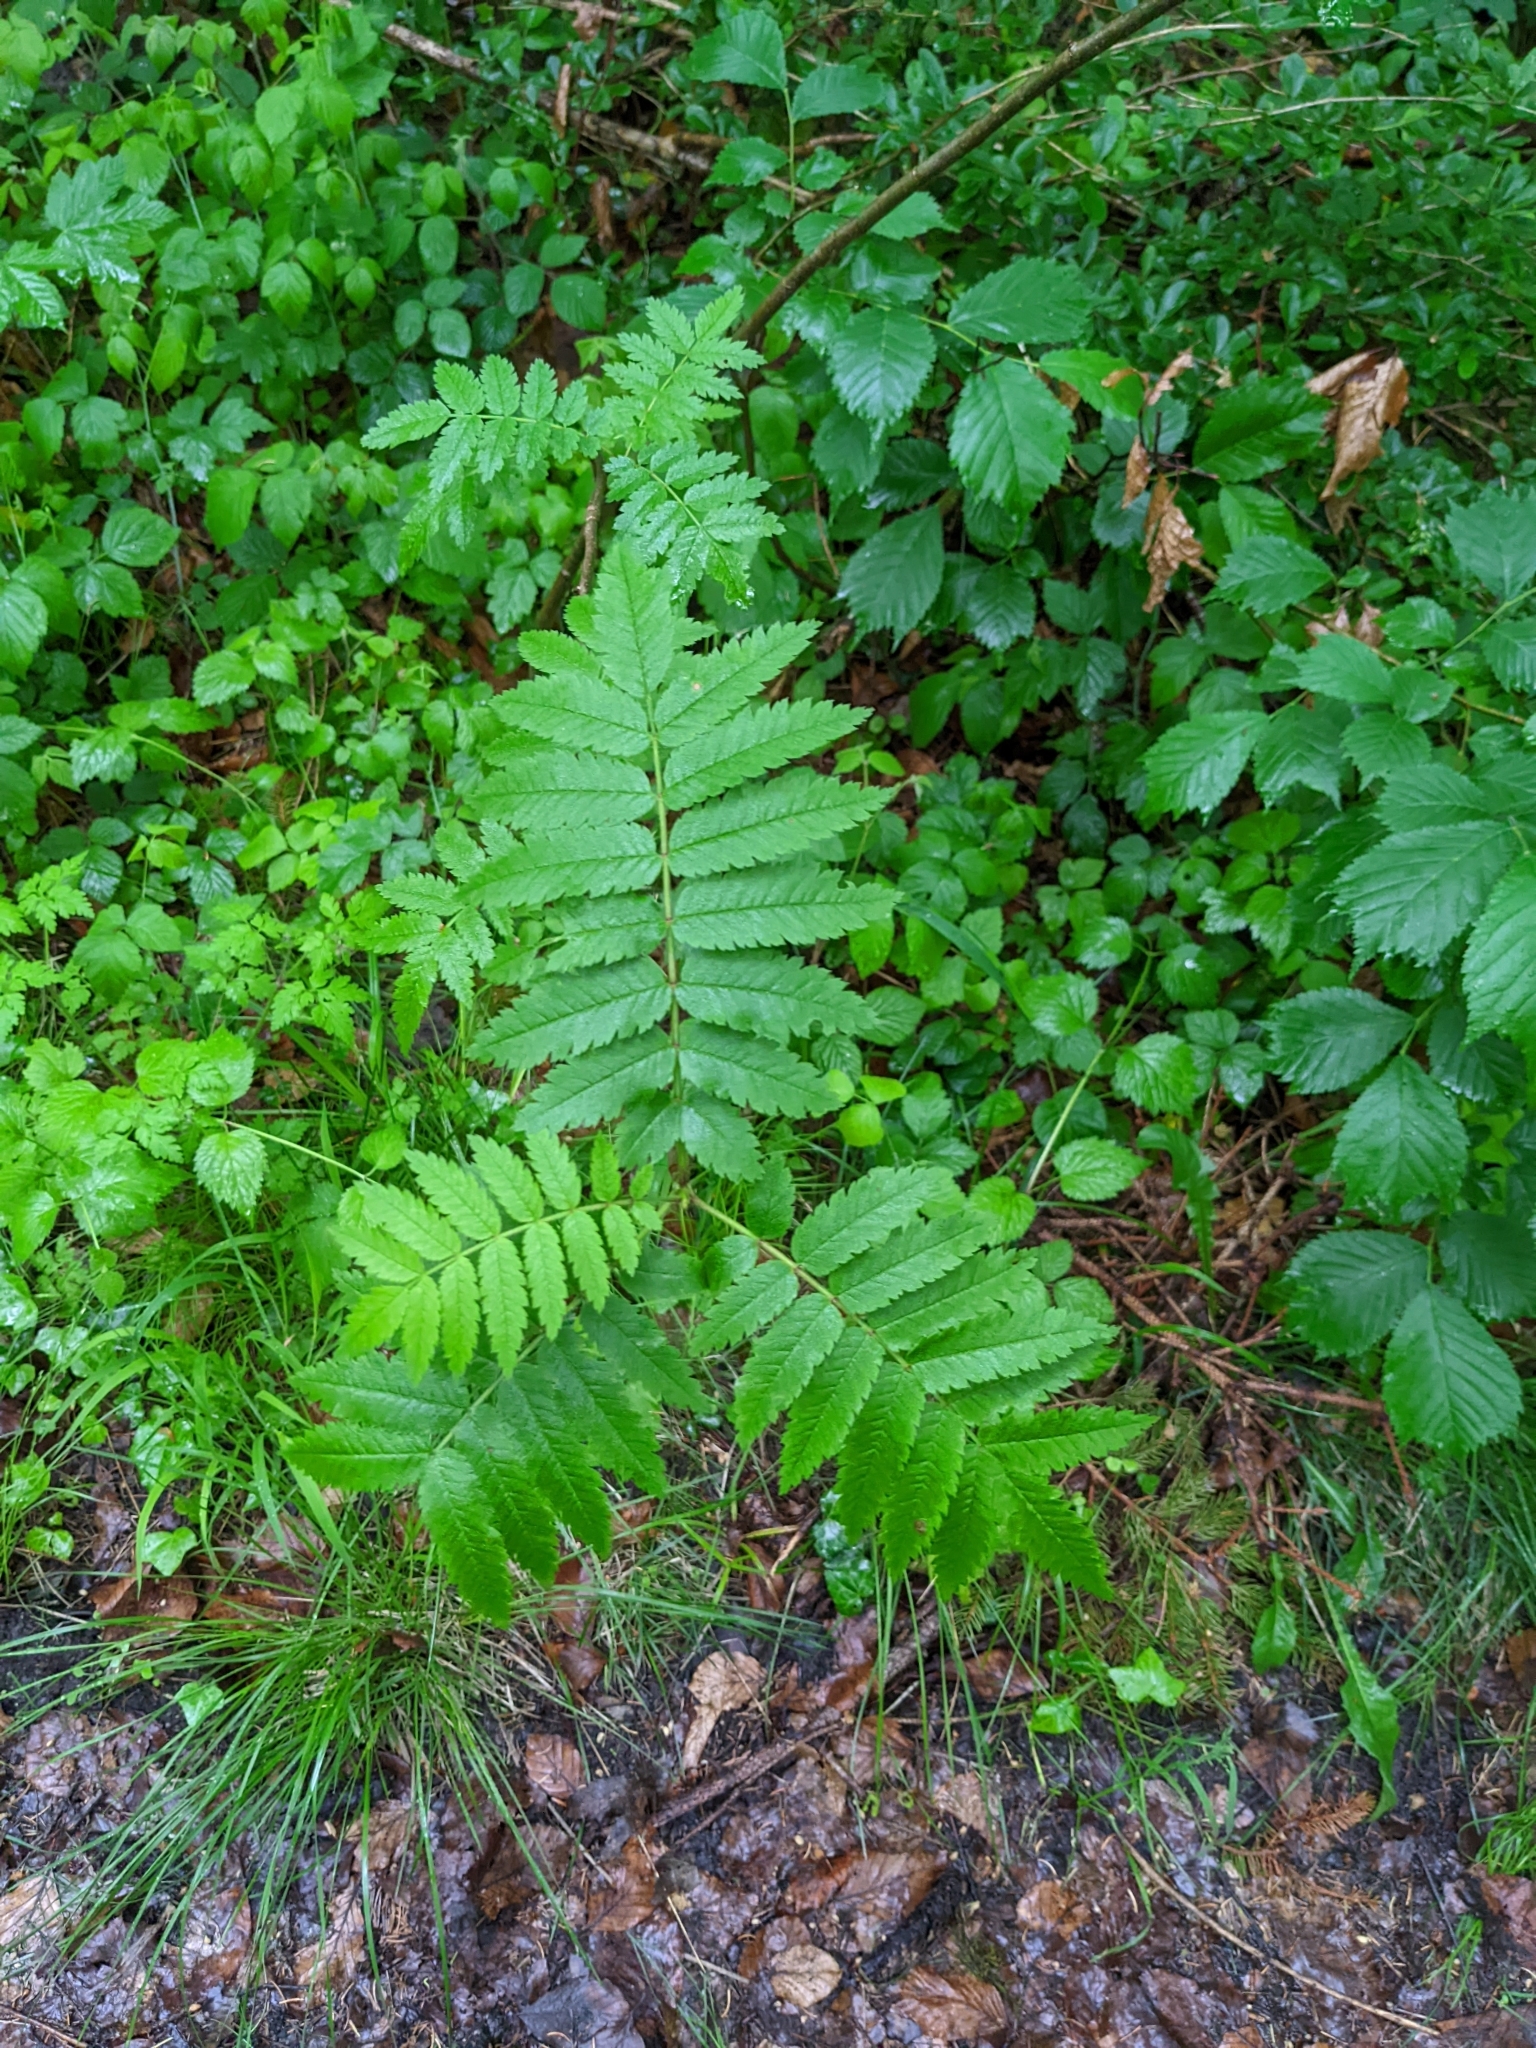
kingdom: Plantae
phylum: Tracheophyta
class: Magnoliopsida
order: Rosales
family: Rosaceae
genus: Sorbus
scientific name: Sorbus aucuparia
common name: Rowan
